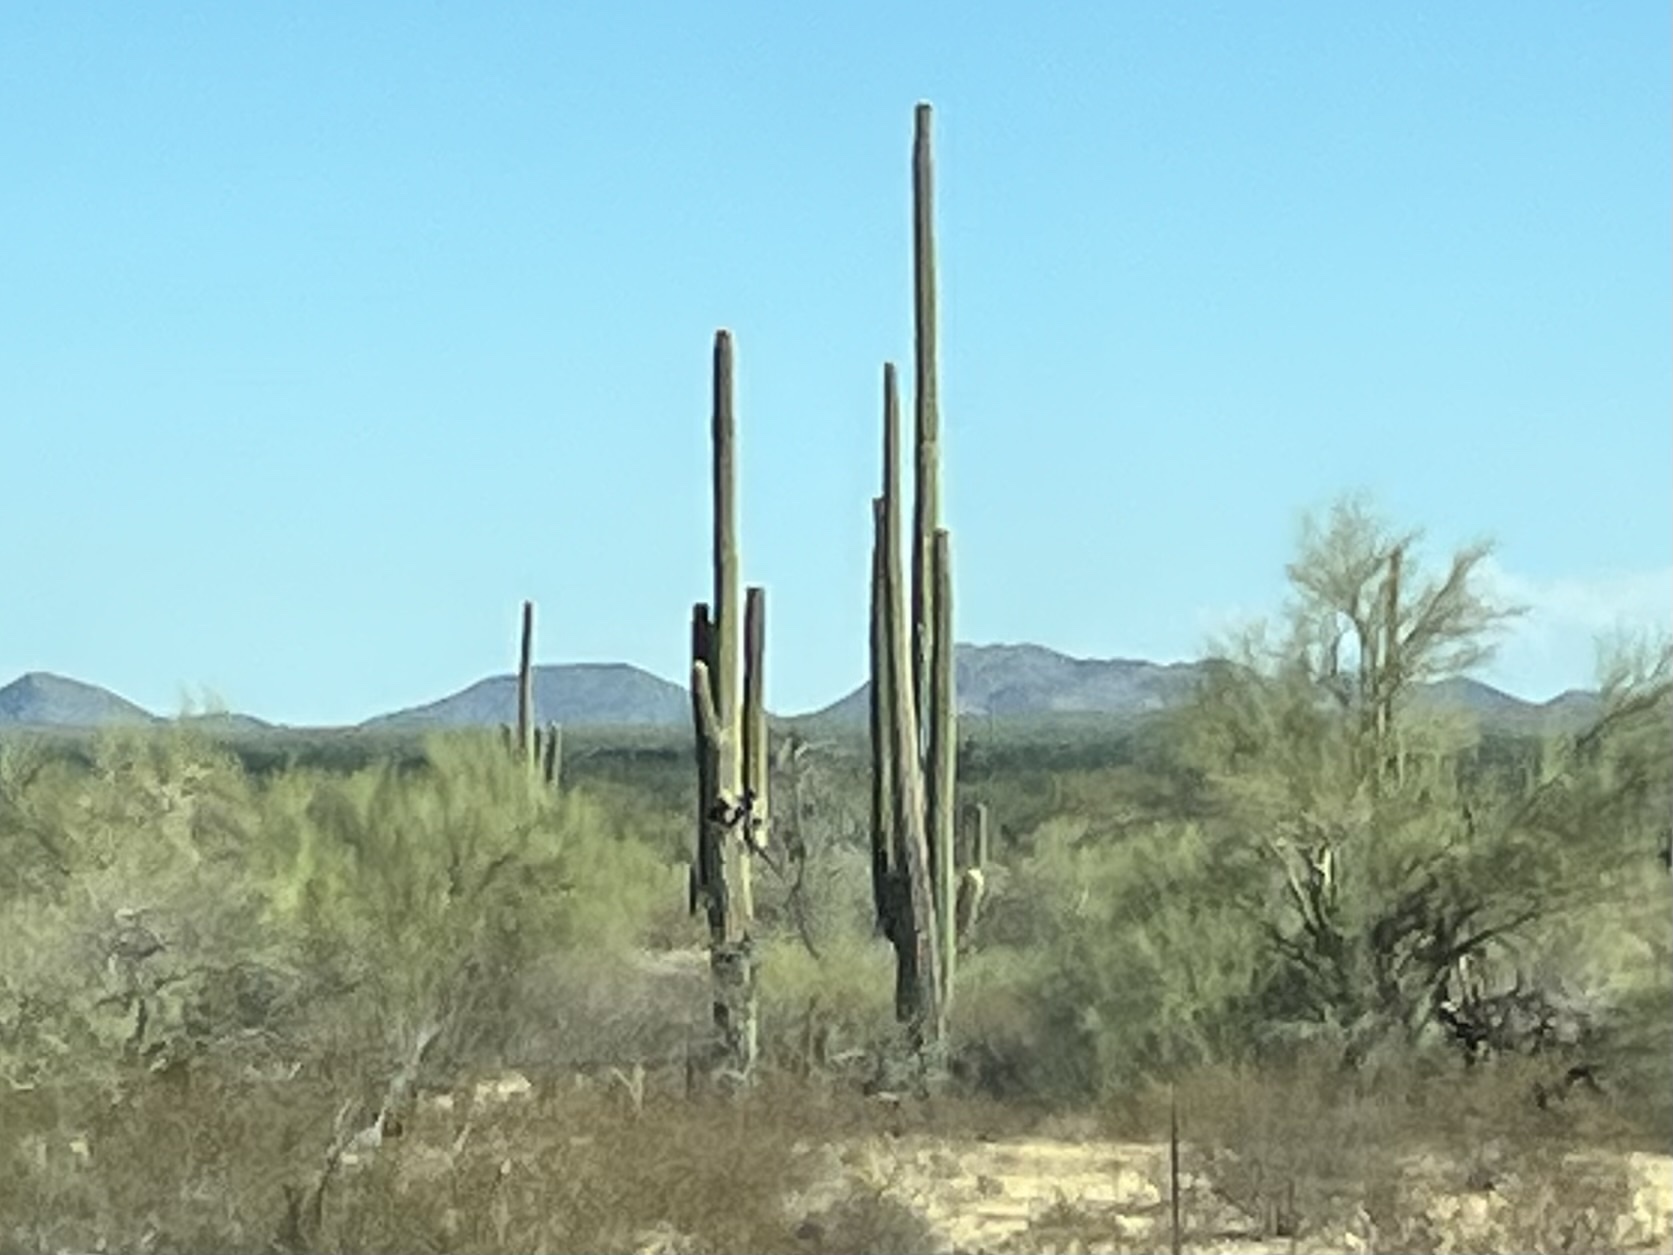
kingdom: Plantae
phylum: Tracheophyta
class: Magnoliopsida
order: Caryophyllales
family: Cactaceae
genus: Carnegiea
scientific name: Carnegiea gigantea
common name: Saguaro
